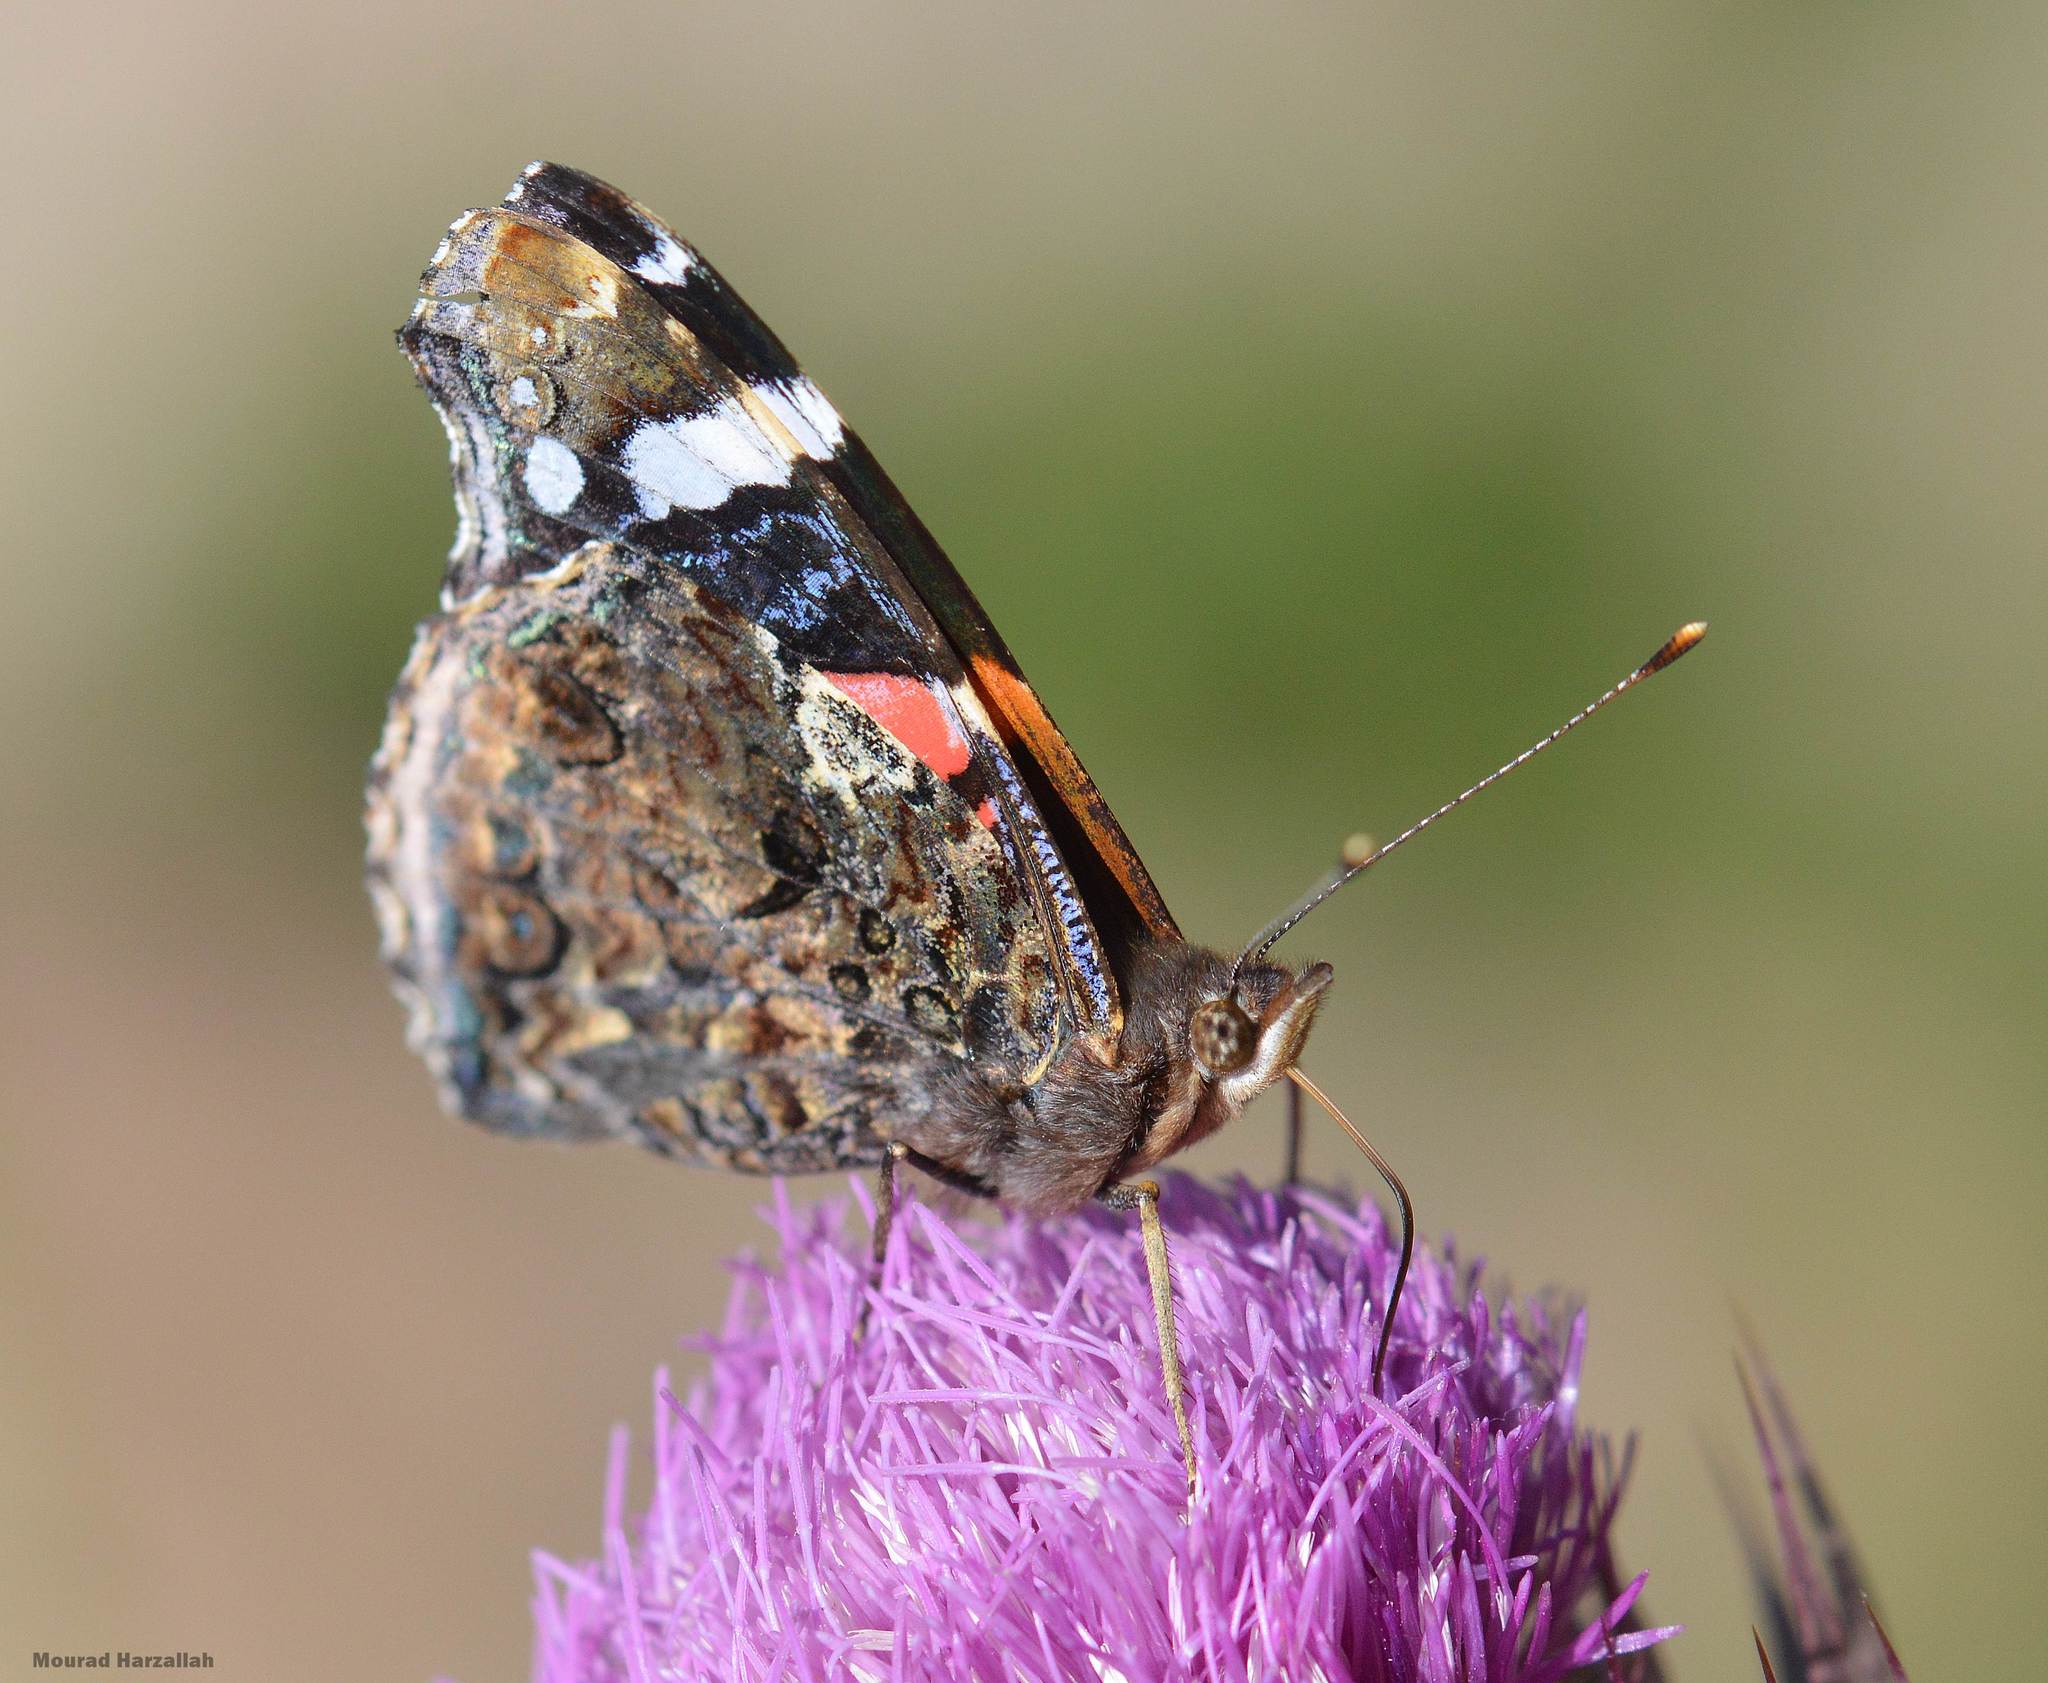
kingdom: Animalia
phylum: Arthropoda
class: Insecta
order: Lepidoptera
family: Nymphalidae
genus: Vanessa
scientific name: Vanessa atalanta
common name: Red admiral
